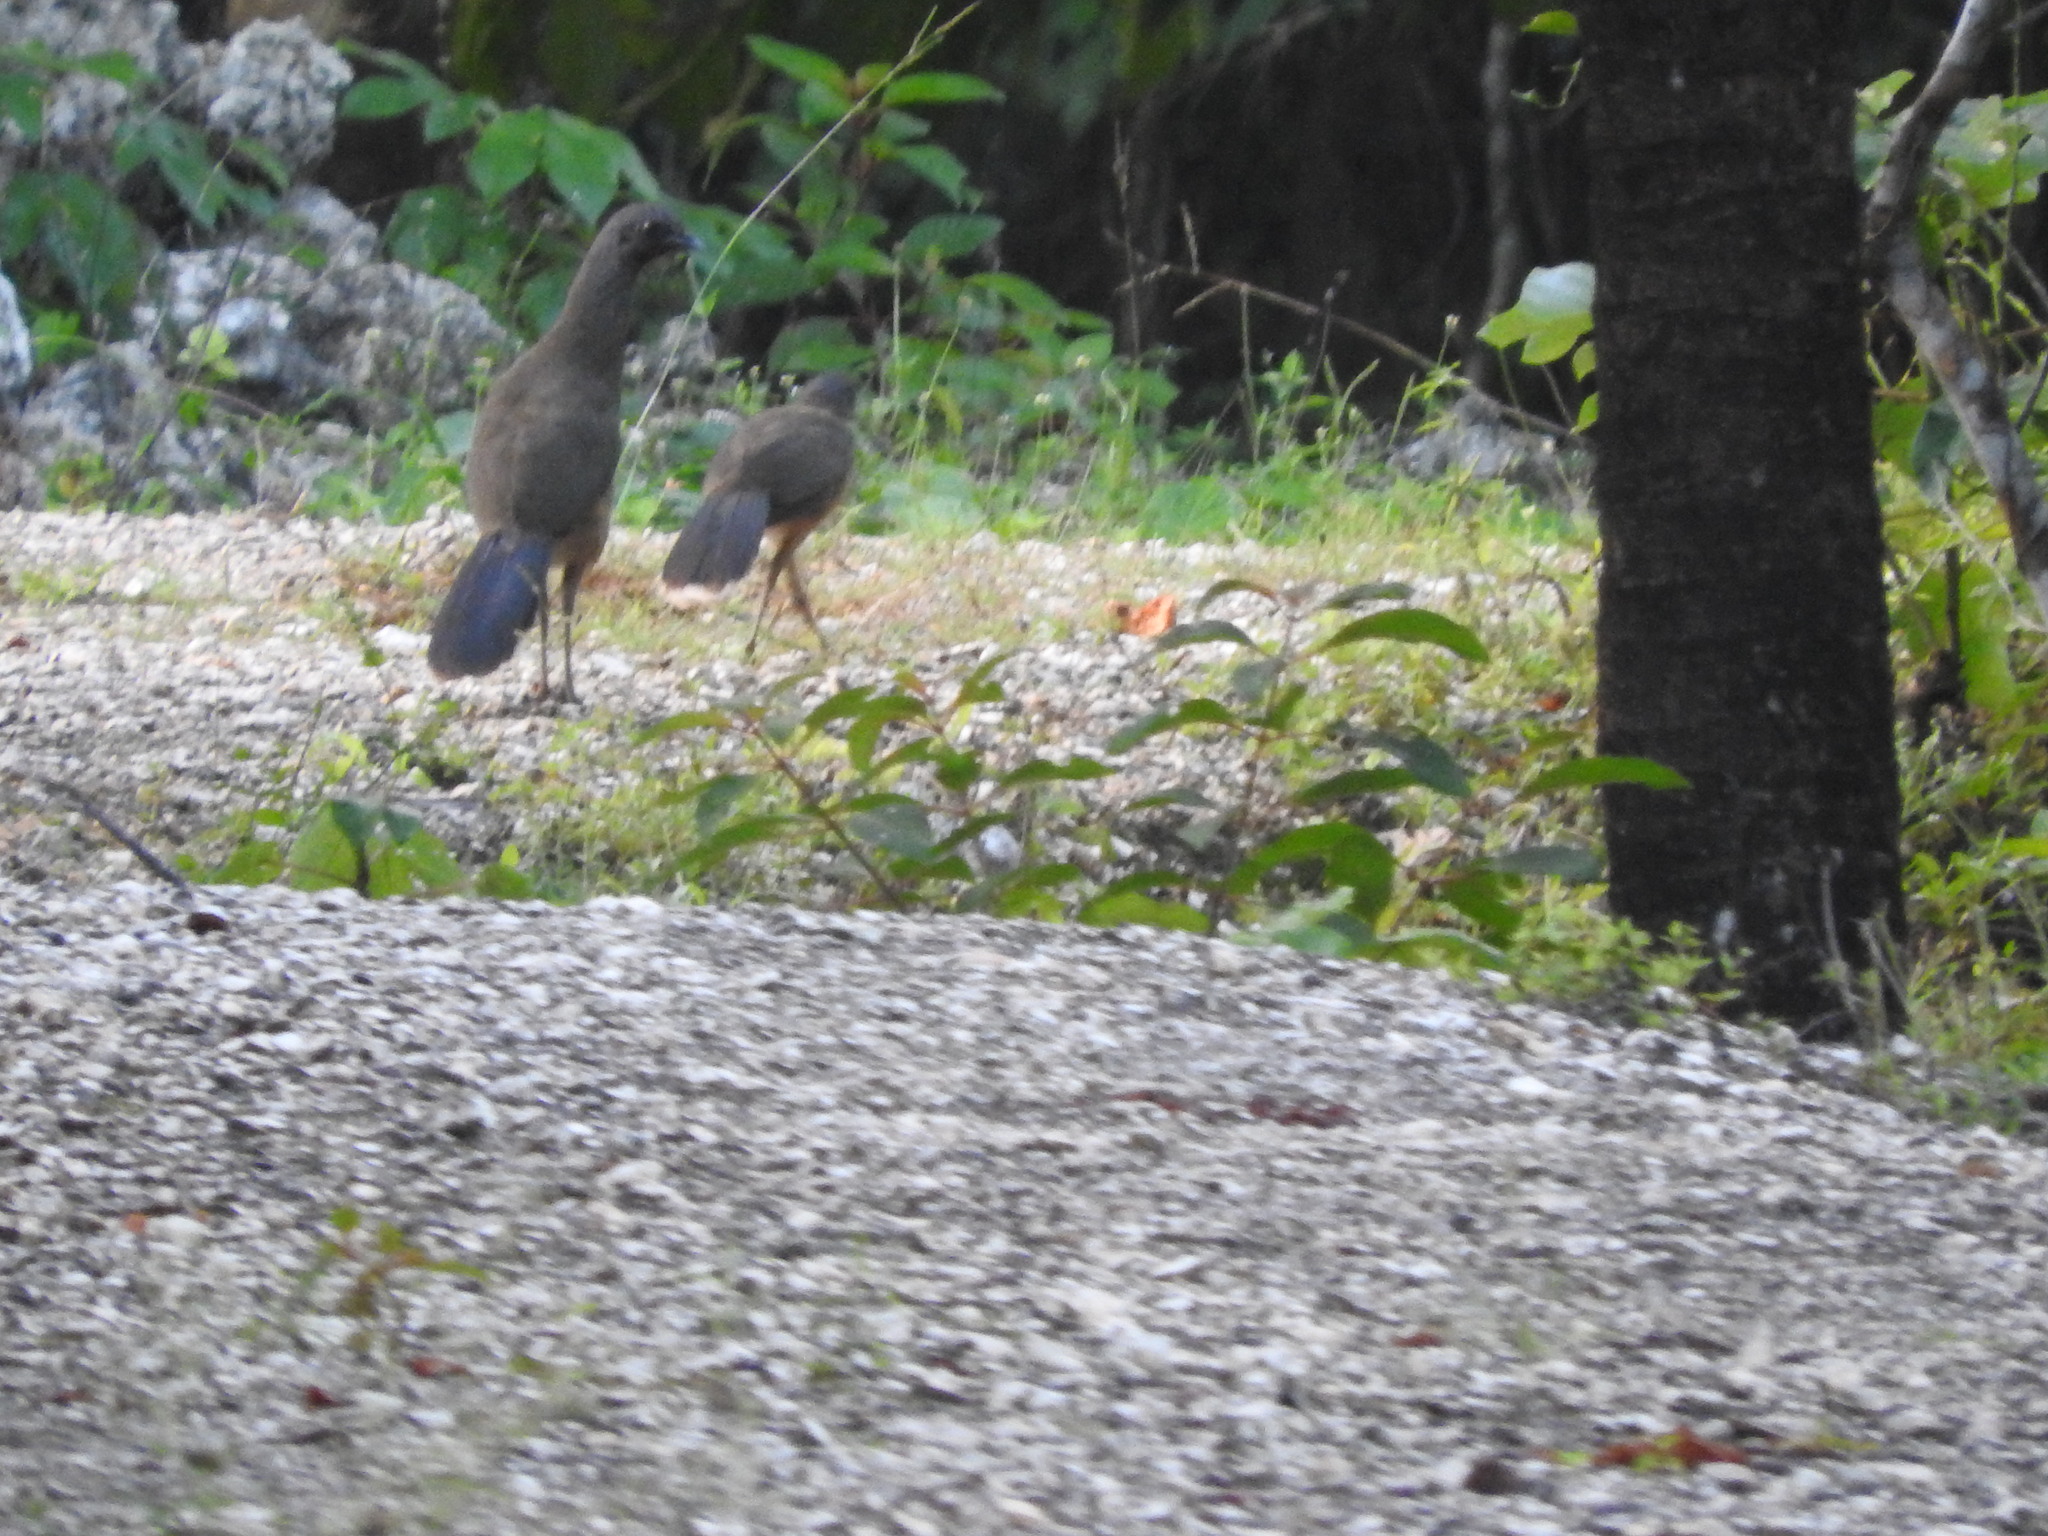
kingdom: Animalia
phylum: Chordata
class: Aves
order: Galliformes
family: Cracidae
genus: Ortalis
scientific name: Ortalis vetula
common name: Plain chachalaca
